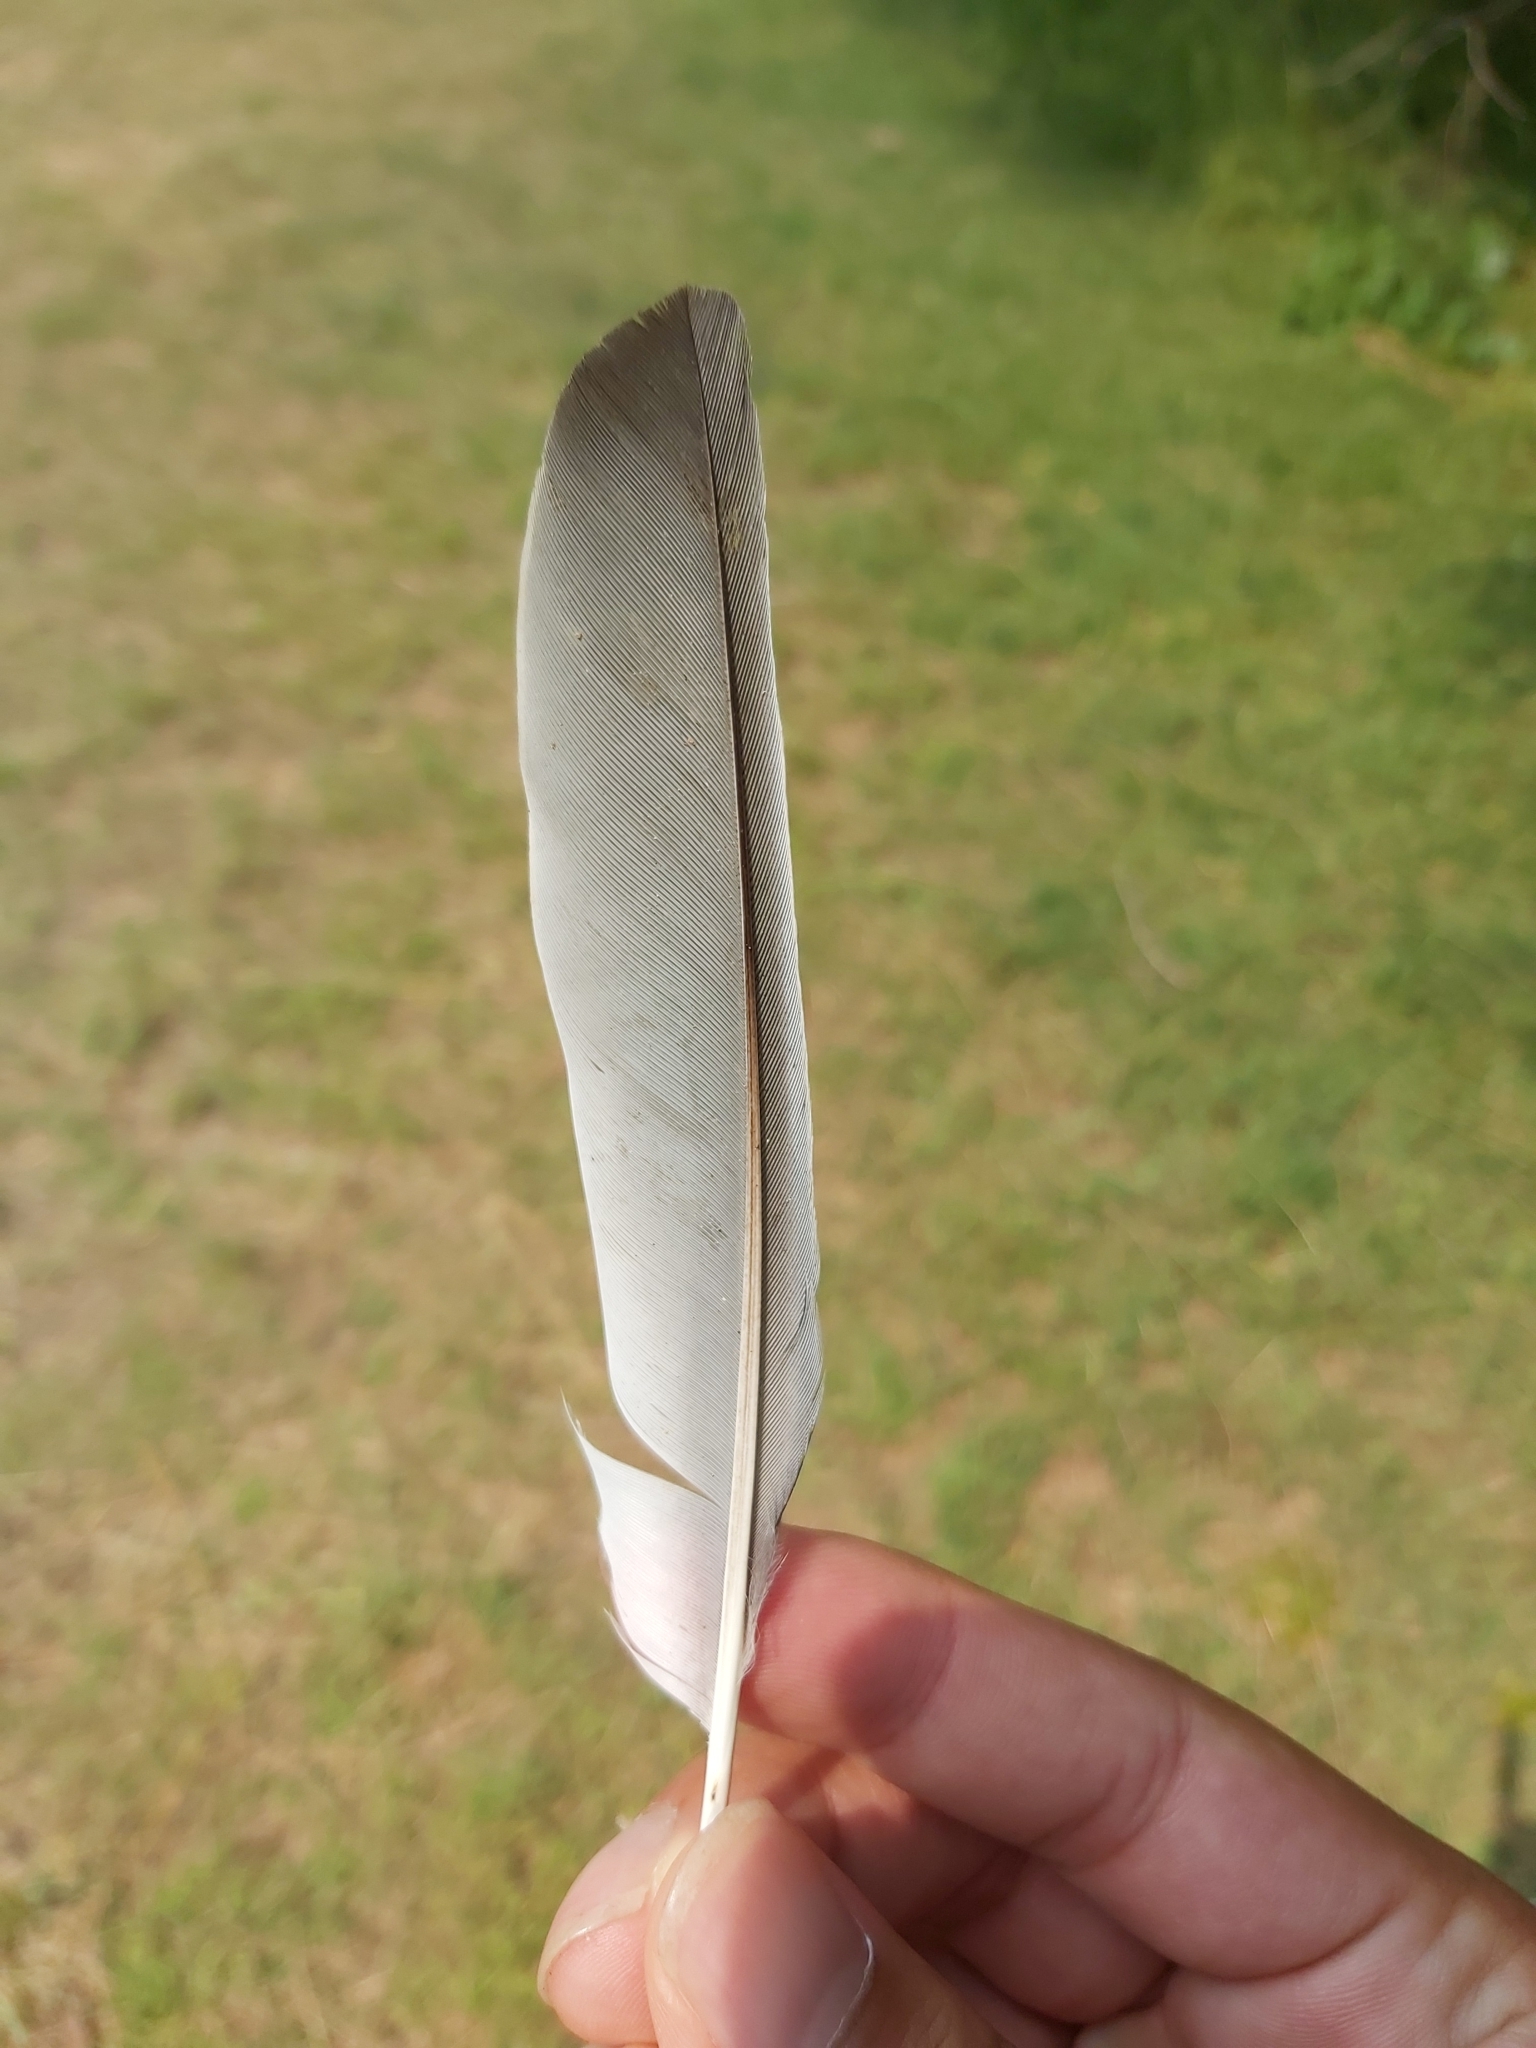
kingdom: Animalia
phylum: Chordata
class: Aves
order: Passeriformes
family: Meliphagidae
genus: Manorina
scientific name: Manorina melanocephala
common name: Noisy miner
